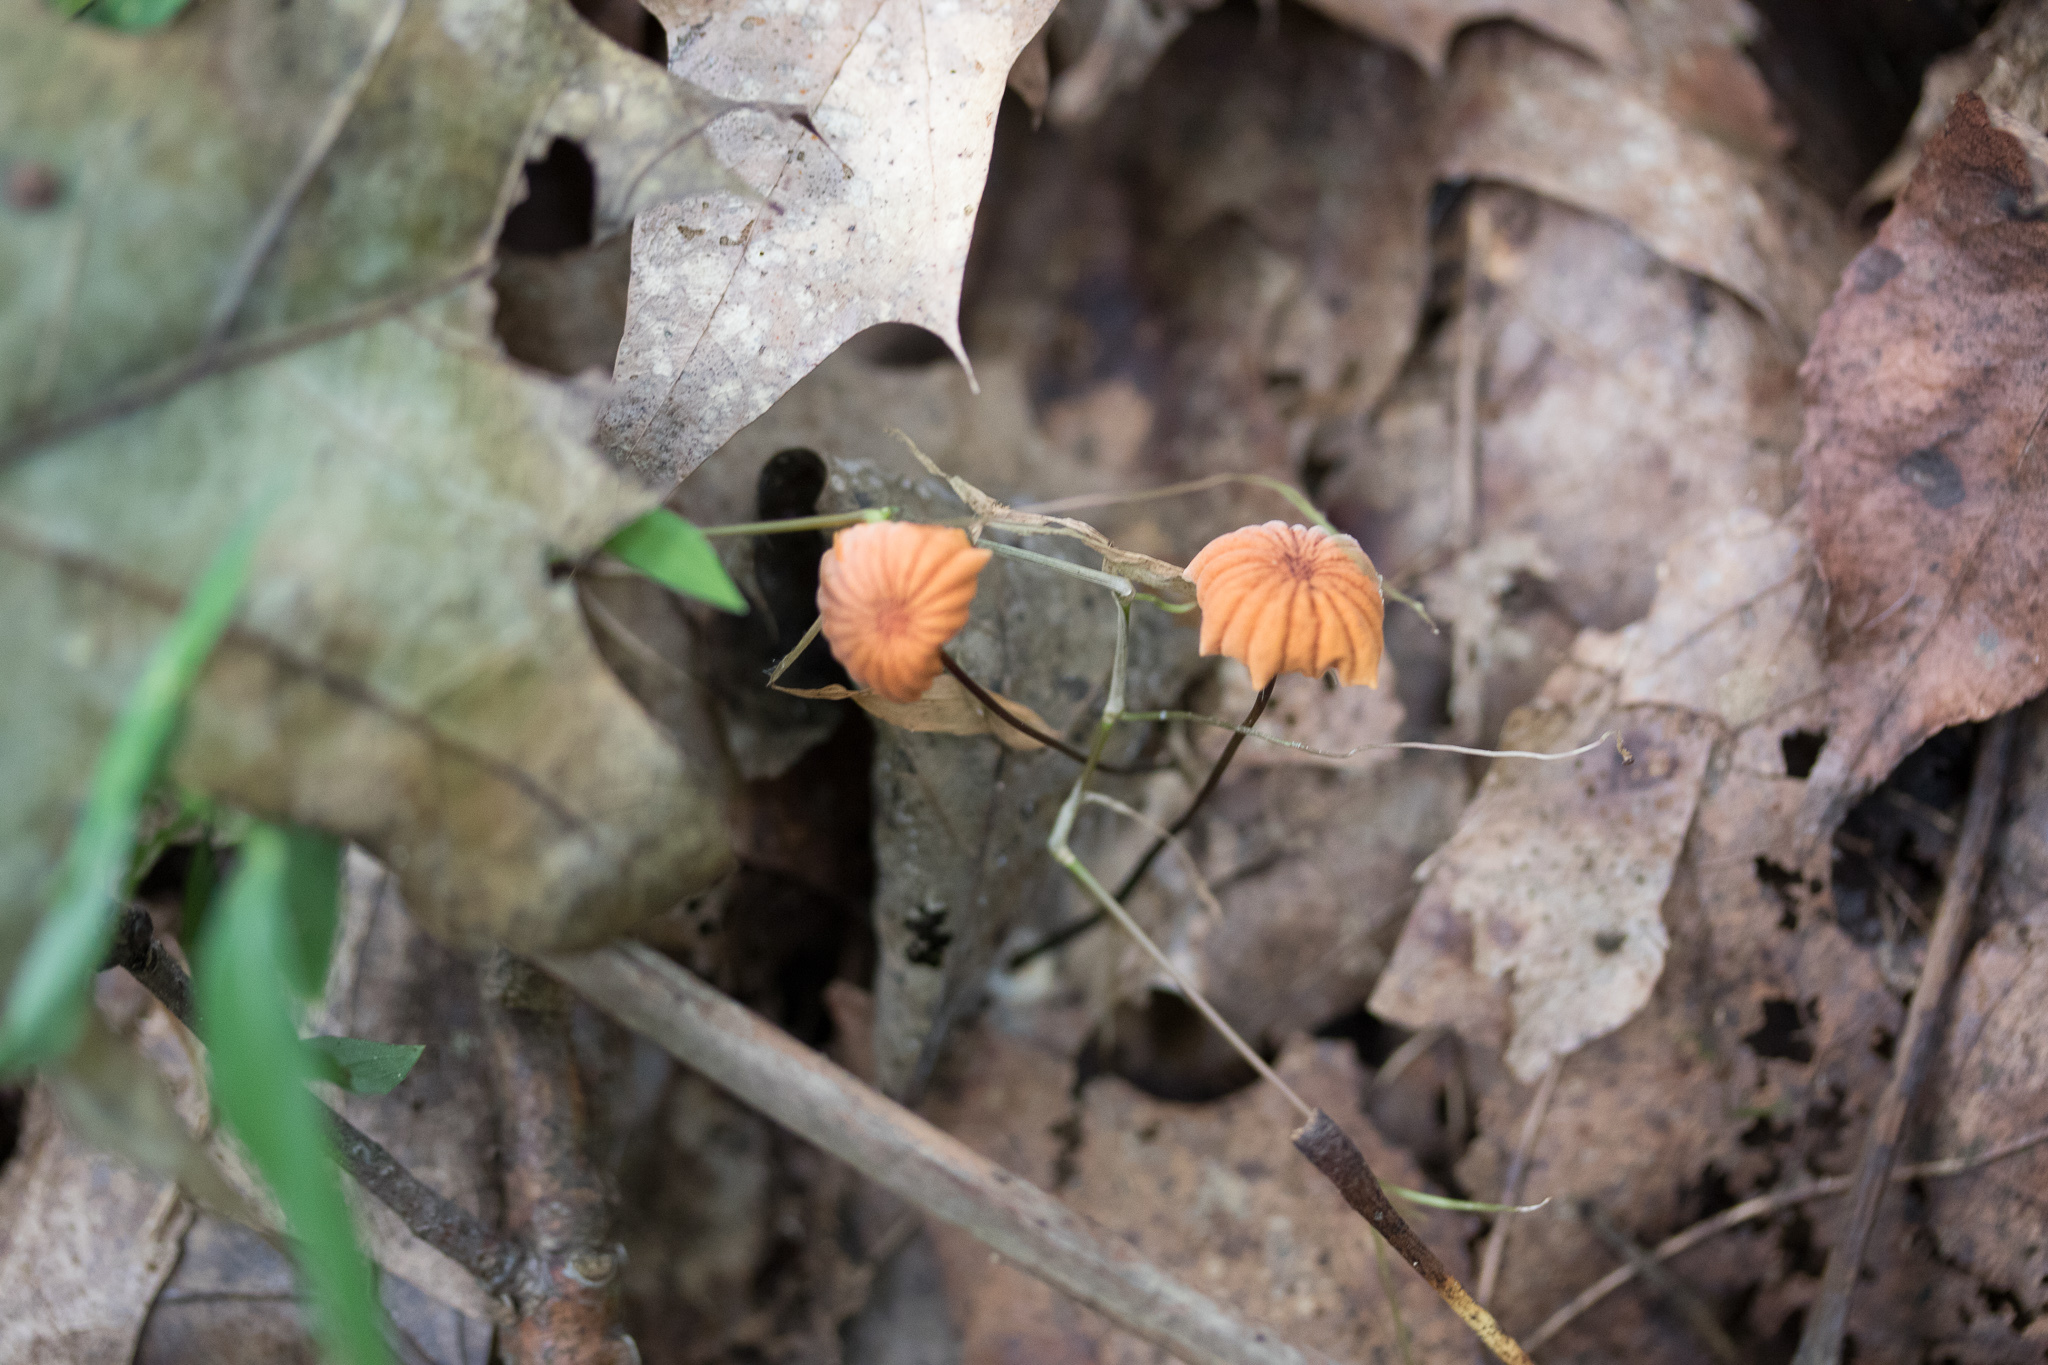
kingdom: Fungi
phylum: Basidiomycota
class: Agaricomycetes
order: Agaricales
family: Marasmiaceae
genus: Marasmius
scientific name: Marasmius siccus
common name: Orange pinwheel
